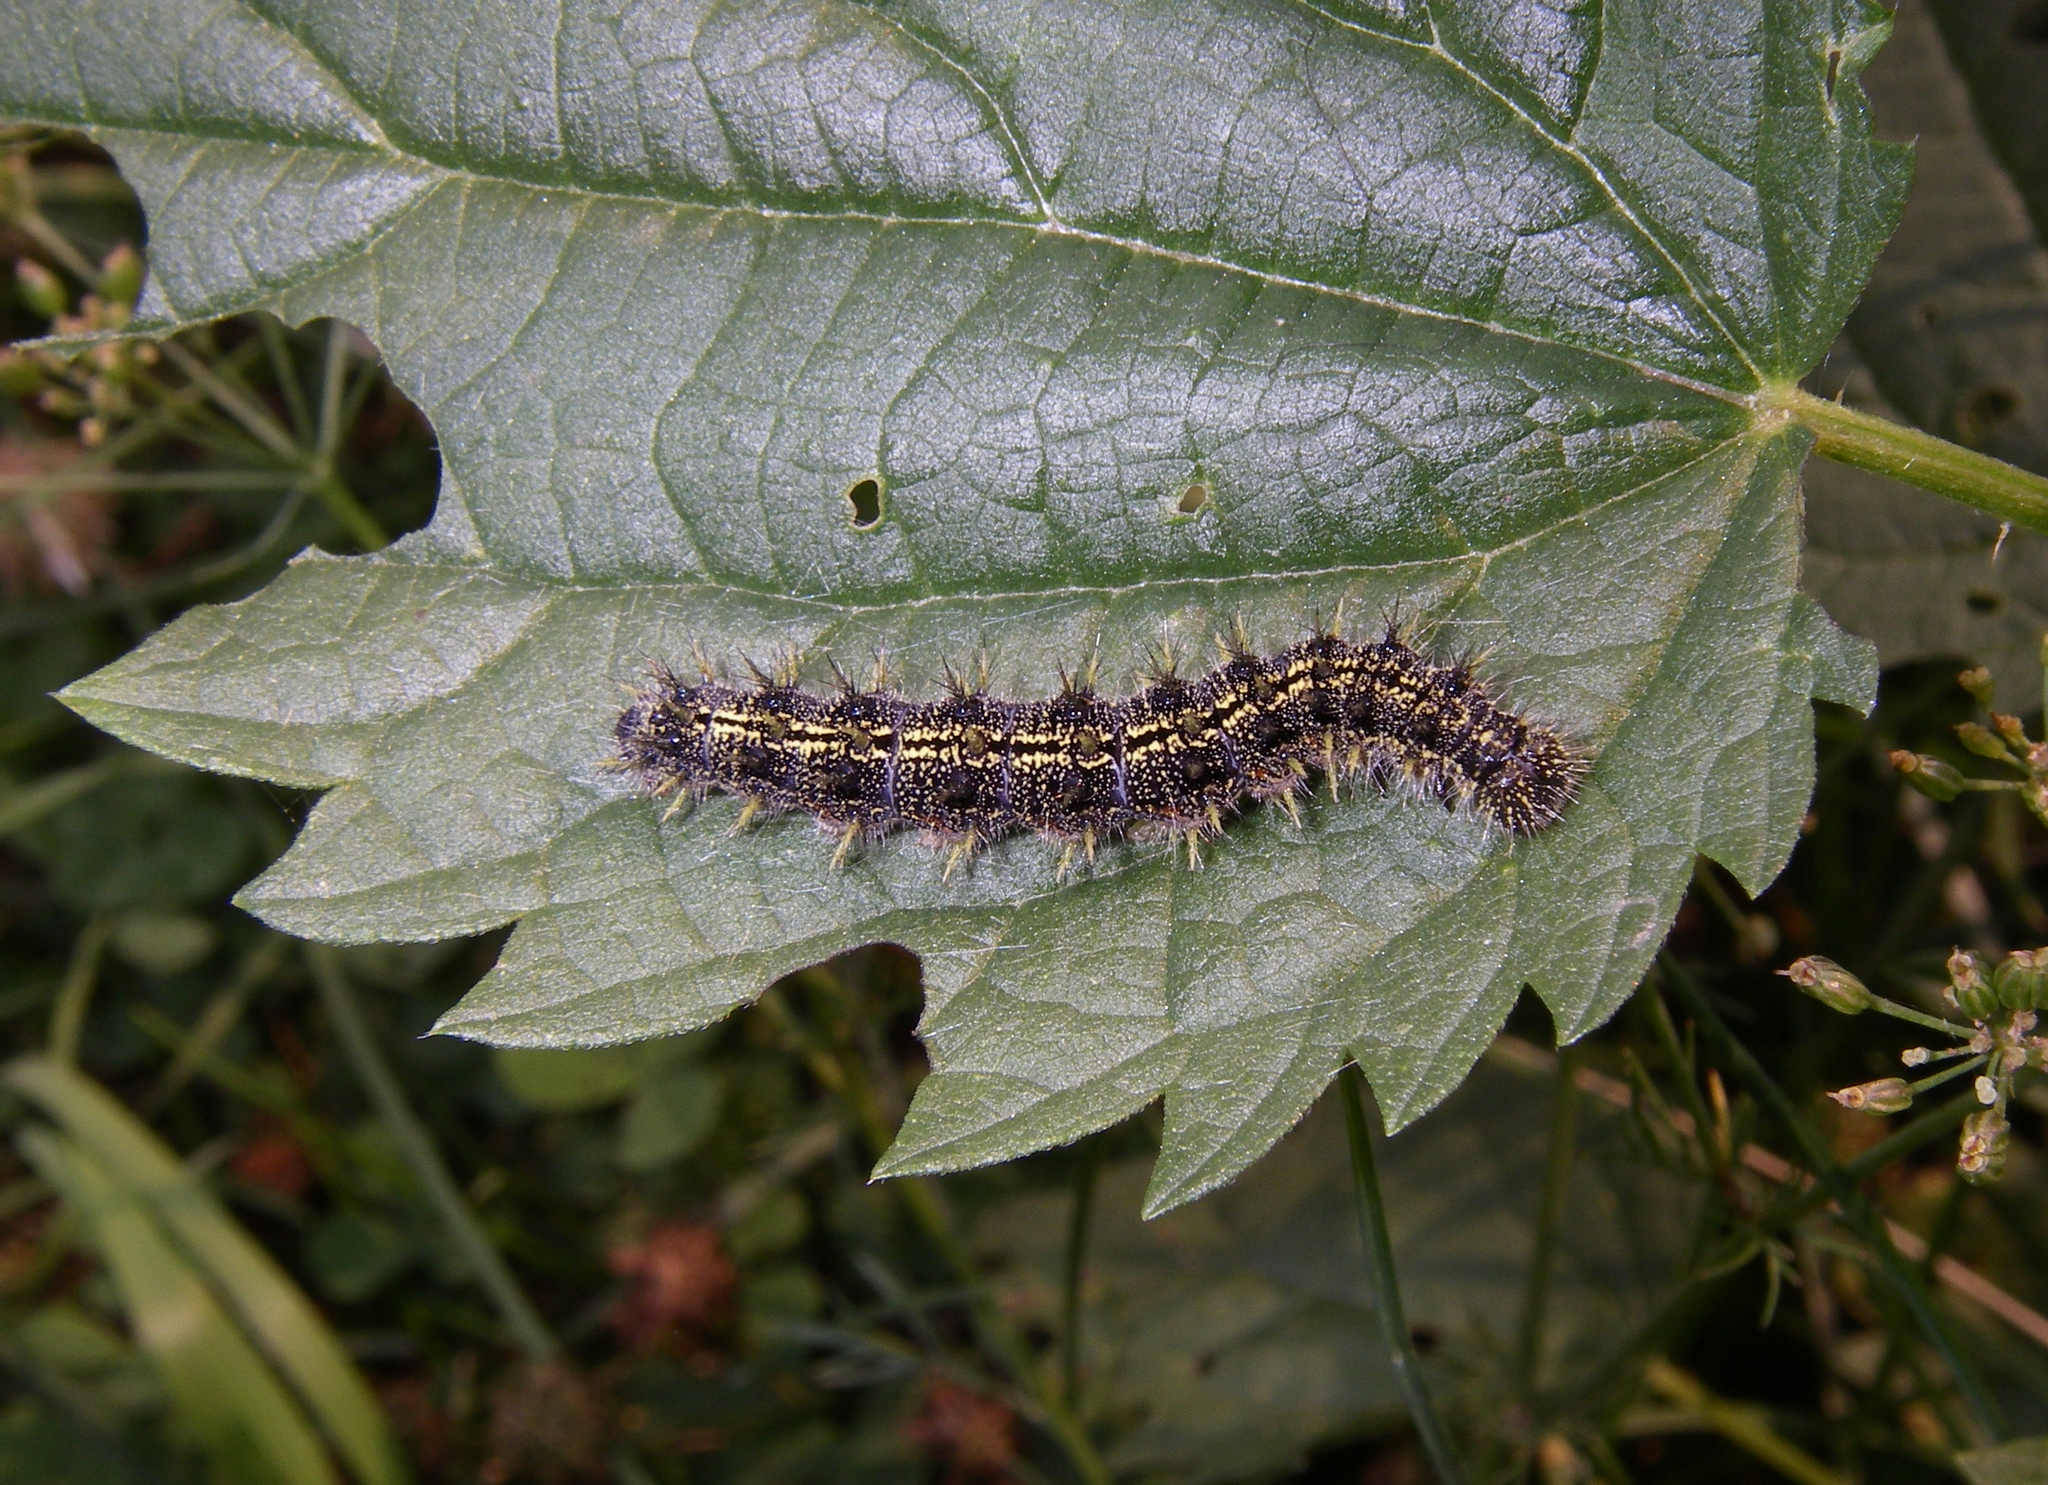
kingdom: Animalia
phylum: Arthropoda
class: Insecta
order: Lepidoptera
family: Nymphalidae
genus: Aglais
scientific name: Aglais urticae
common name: Small tortoiseshell
